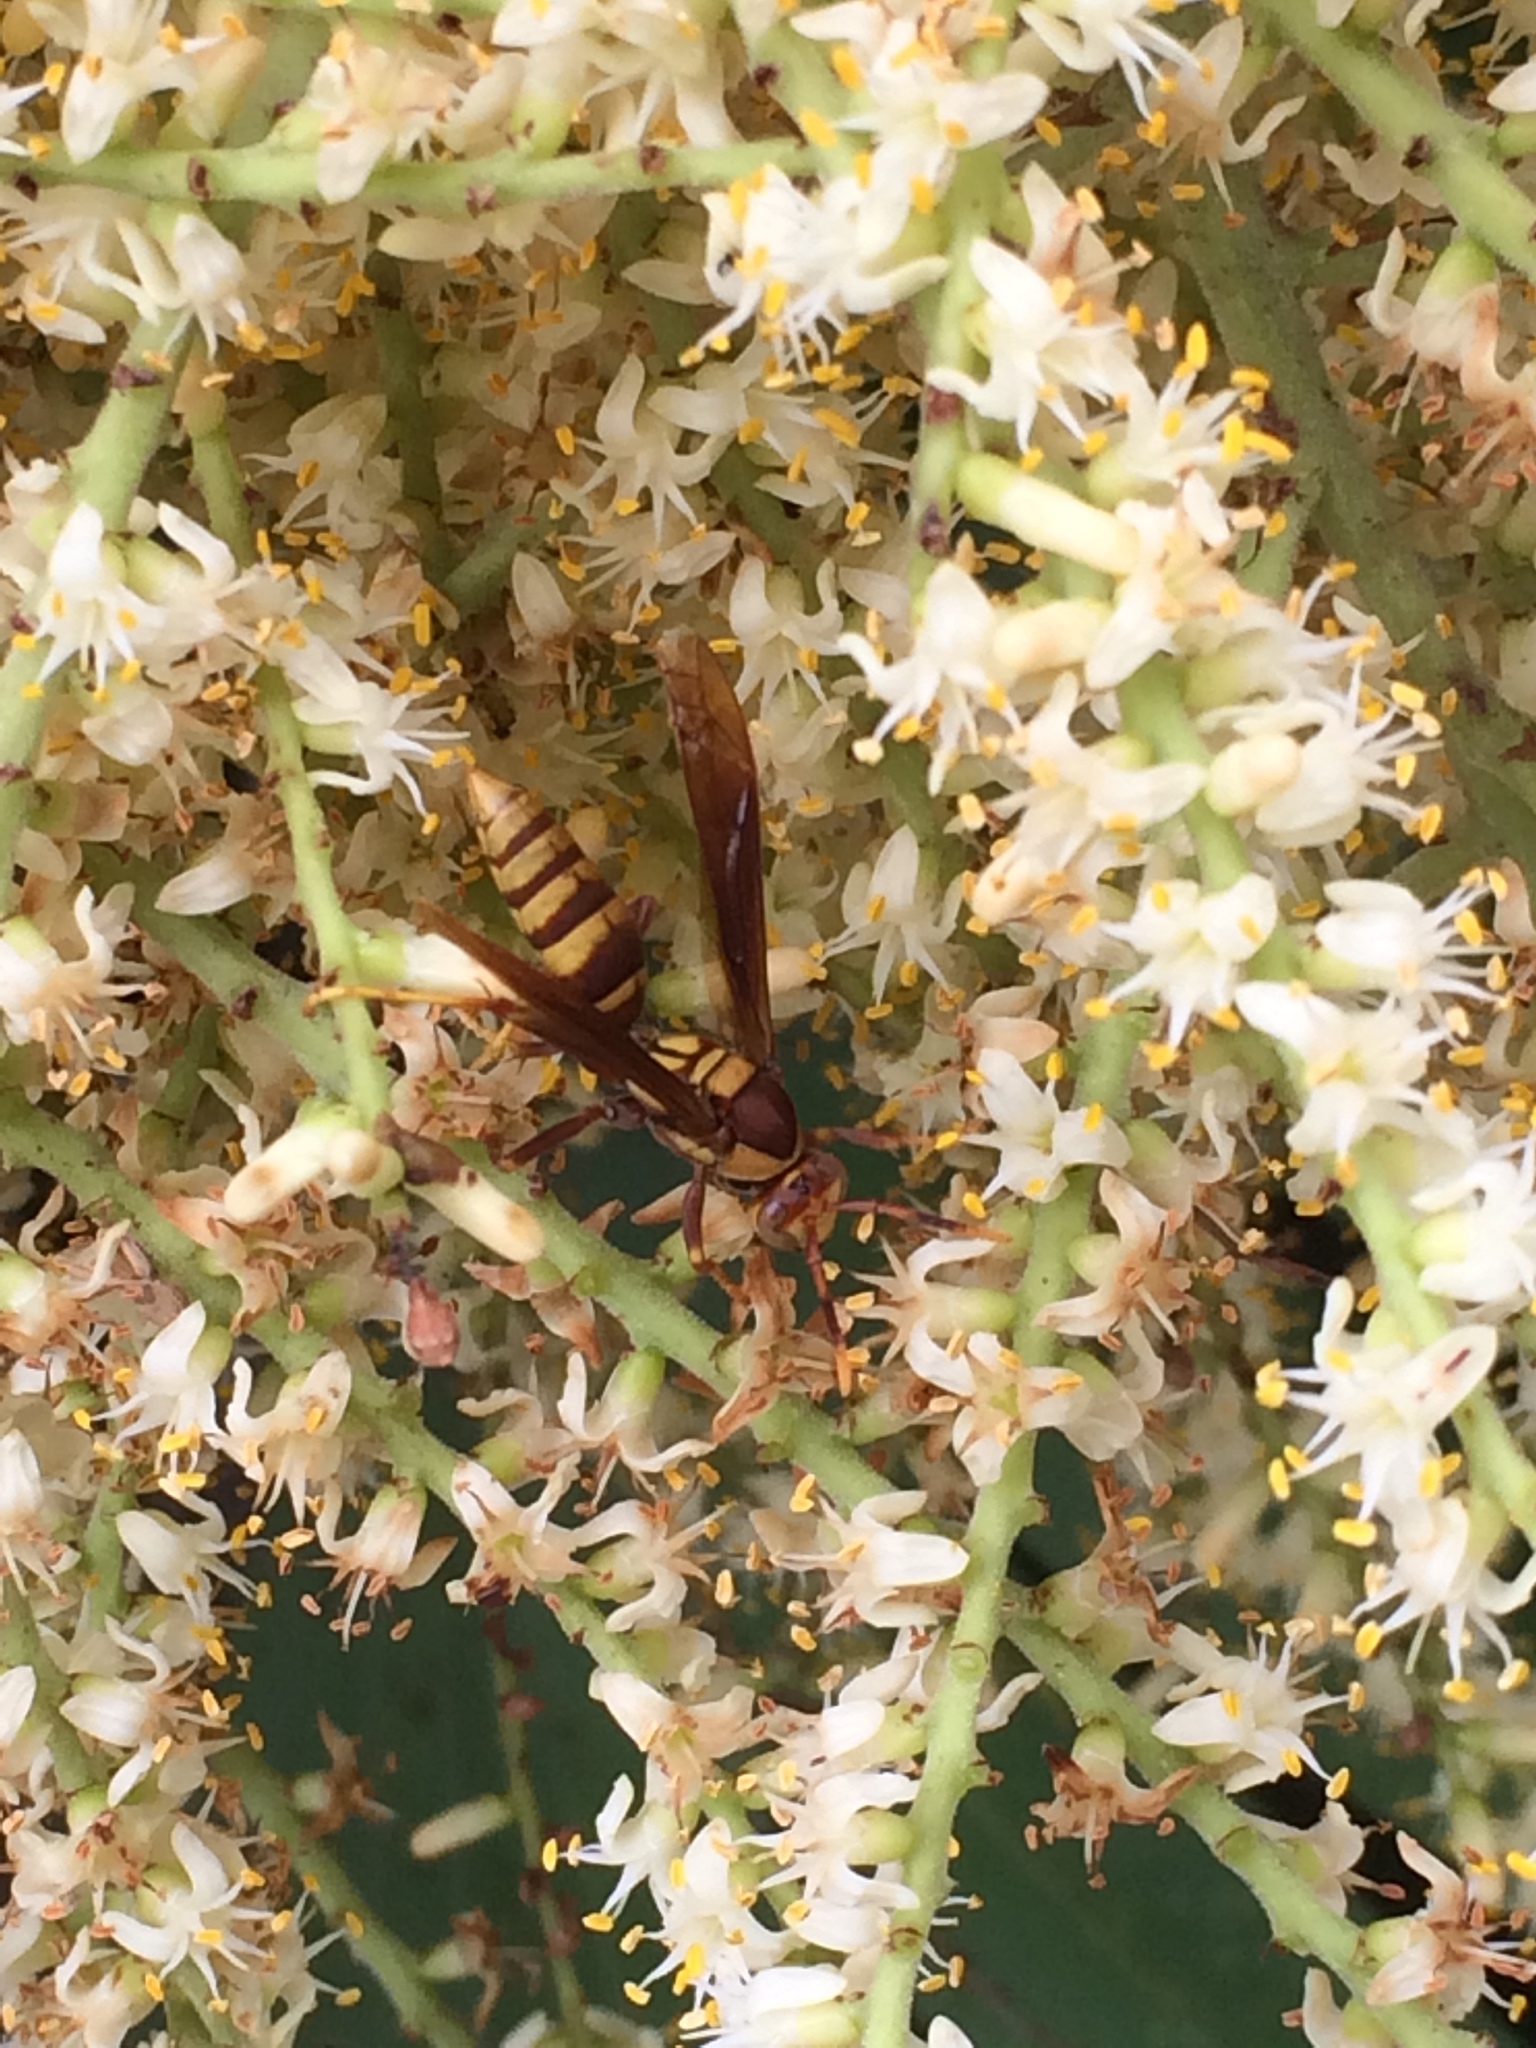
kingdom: Animalia
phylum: Arthropoda
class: Insecta
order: Hymenoptera
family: Eumenidae
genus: Polistes
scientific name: Polistes major
